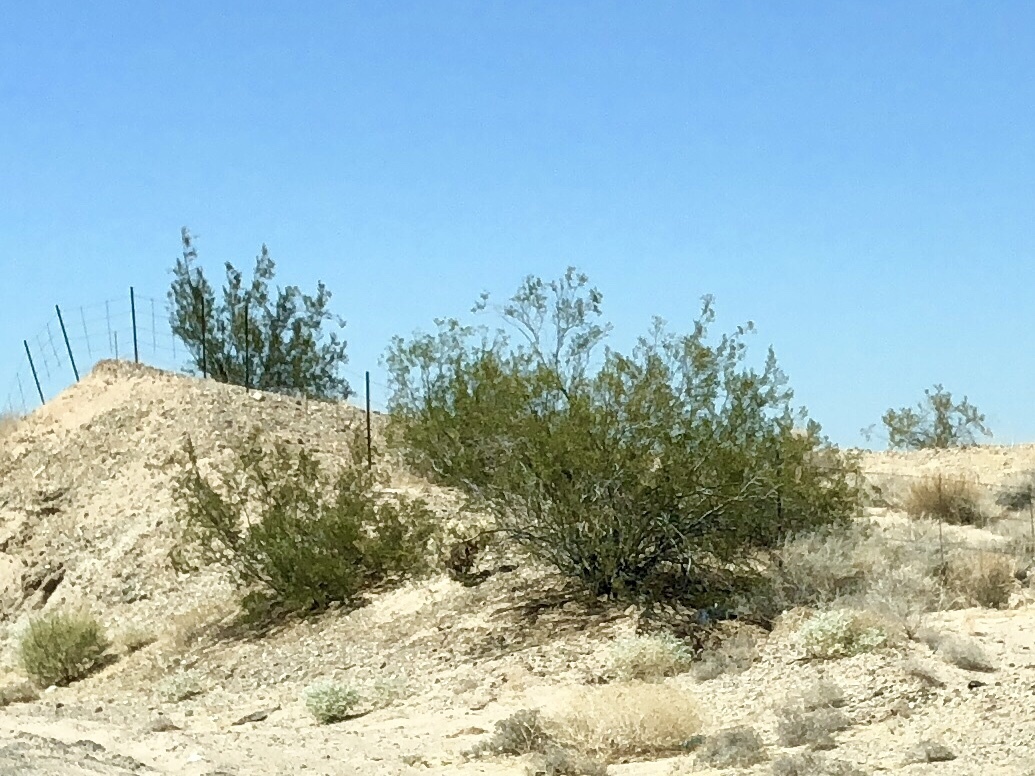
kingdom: Plantae
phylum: Tracheophyta
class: Magnoliopsida
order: Zygophyllales
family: Zygophyllaceae
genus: Larrea
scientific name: Larrea tridentata
